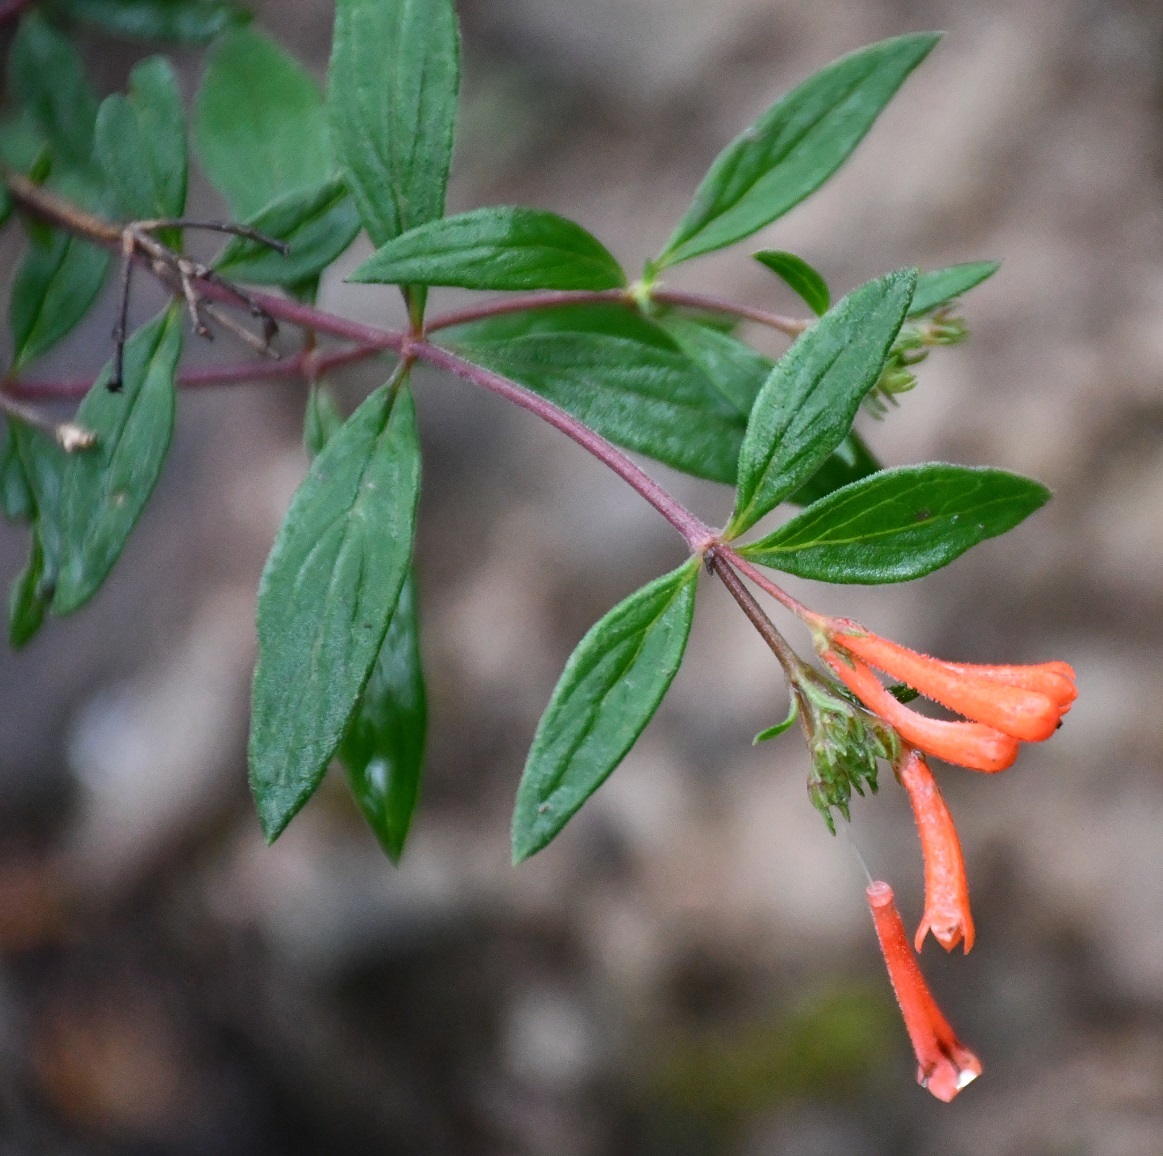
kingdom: Plantae
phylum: Tracheophyta
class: Magnoliopsida
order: Gentianales
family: Rubiaceae
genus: Bouvardia
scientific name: Bouvardia ternifolia
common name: Scarlet bouvardia
